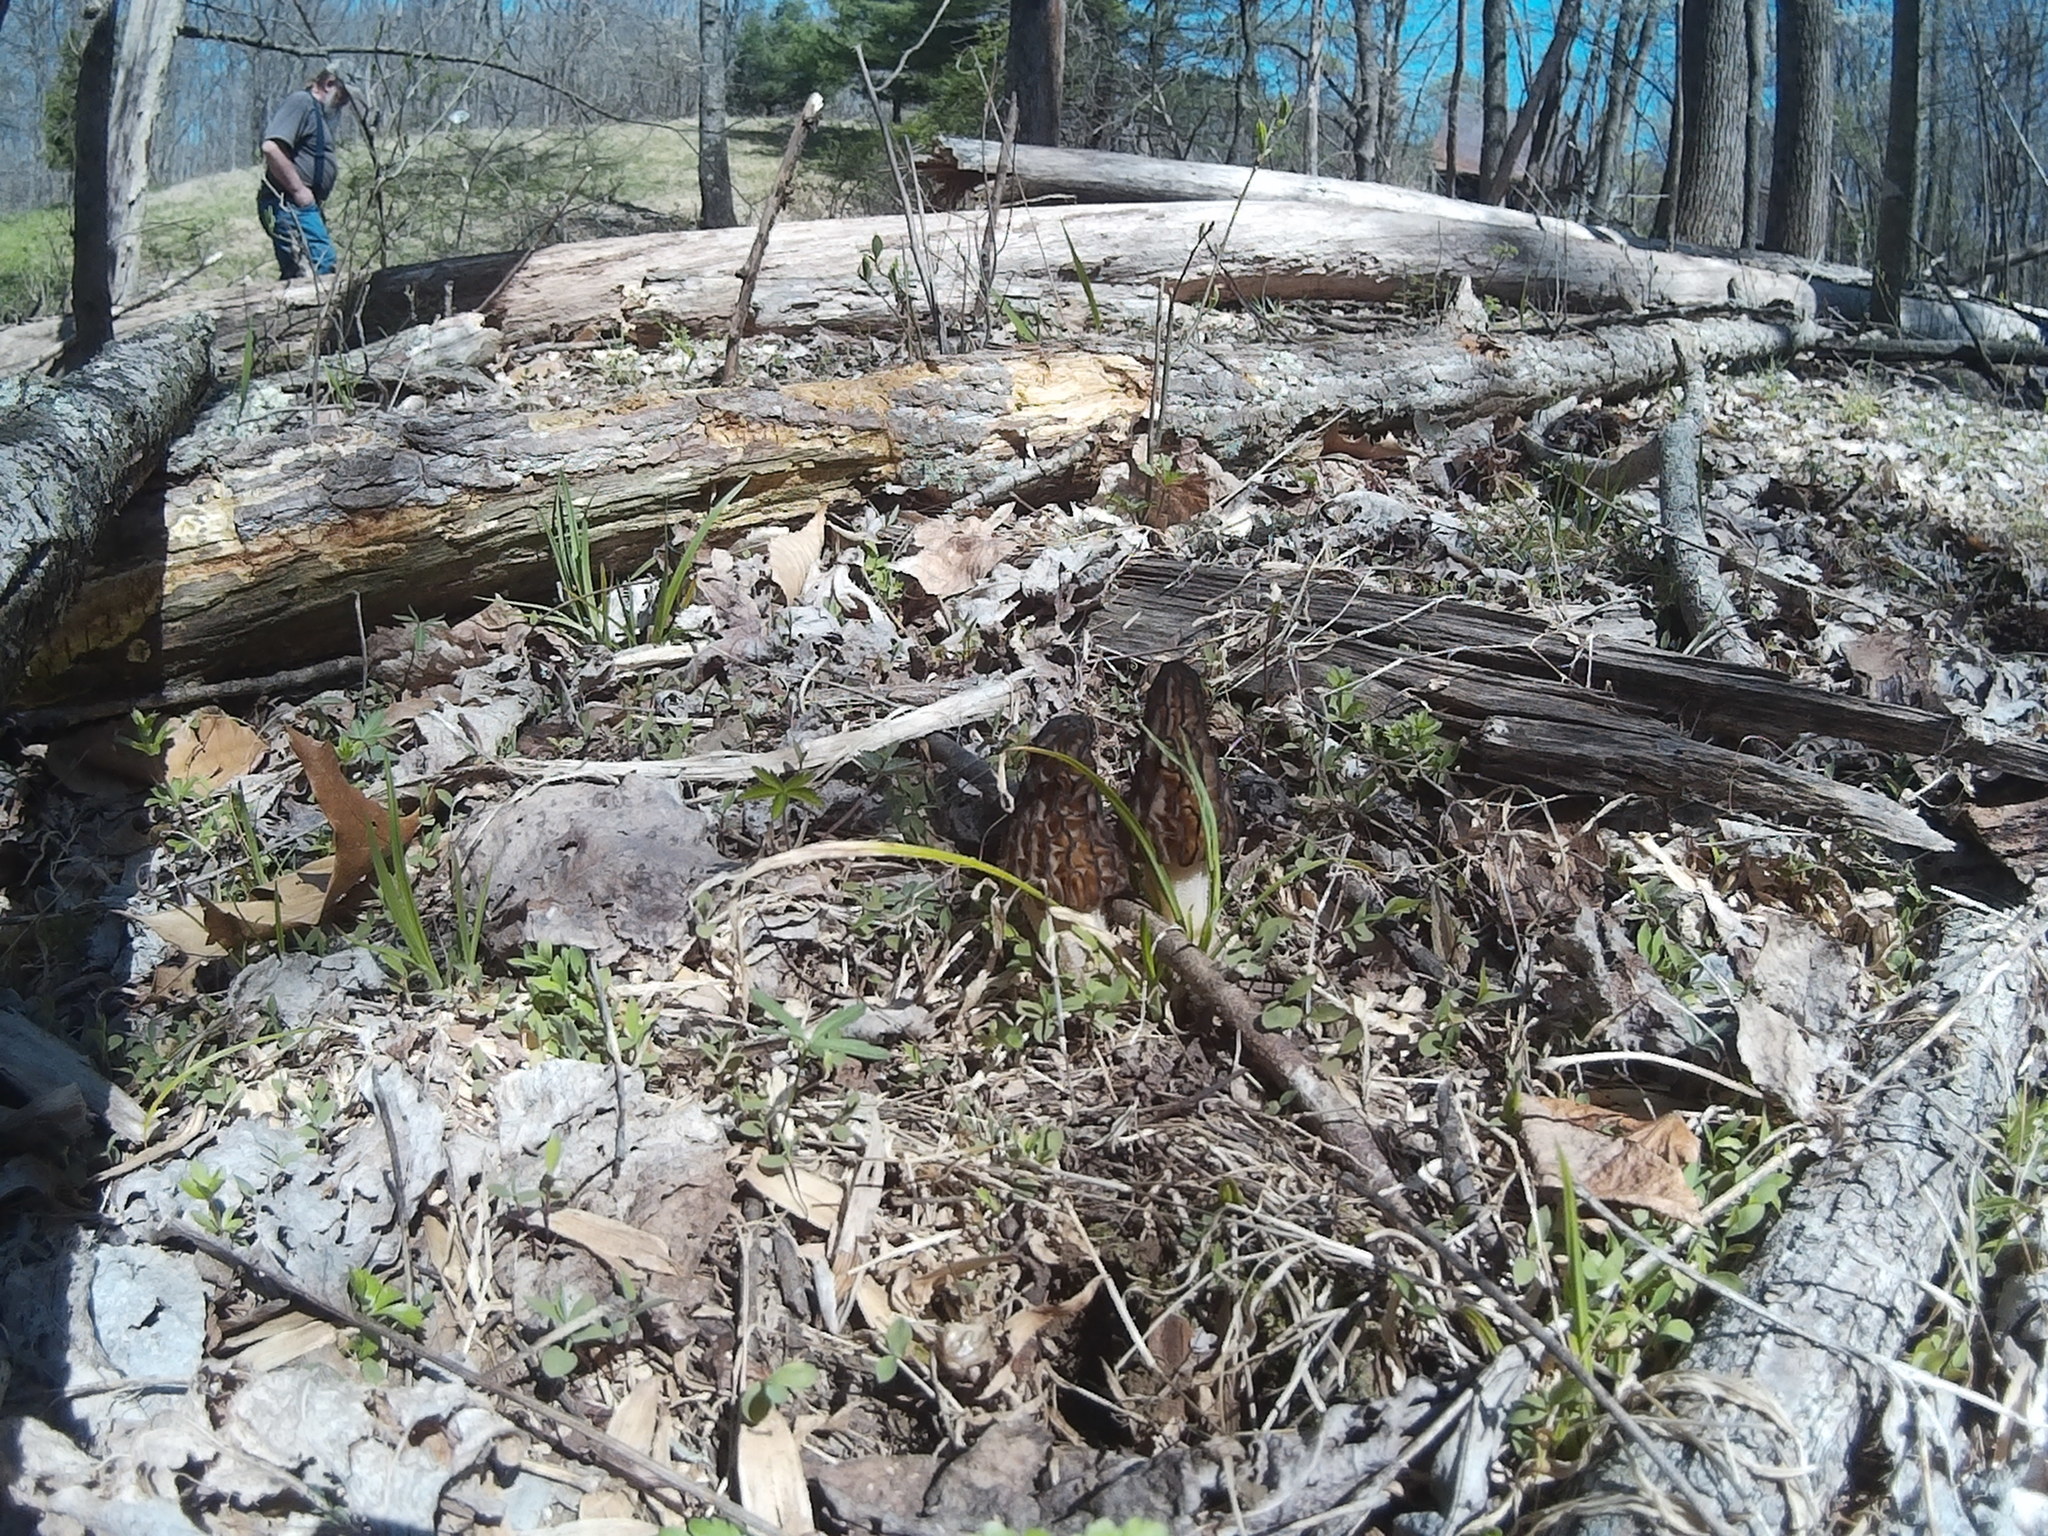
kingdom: Fungi
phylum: Ascomycota
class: Pezizomycetes
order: Pezizales
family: Morchellaceae
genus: Morchella
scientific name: Morchella angusticeps
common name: Black morel
